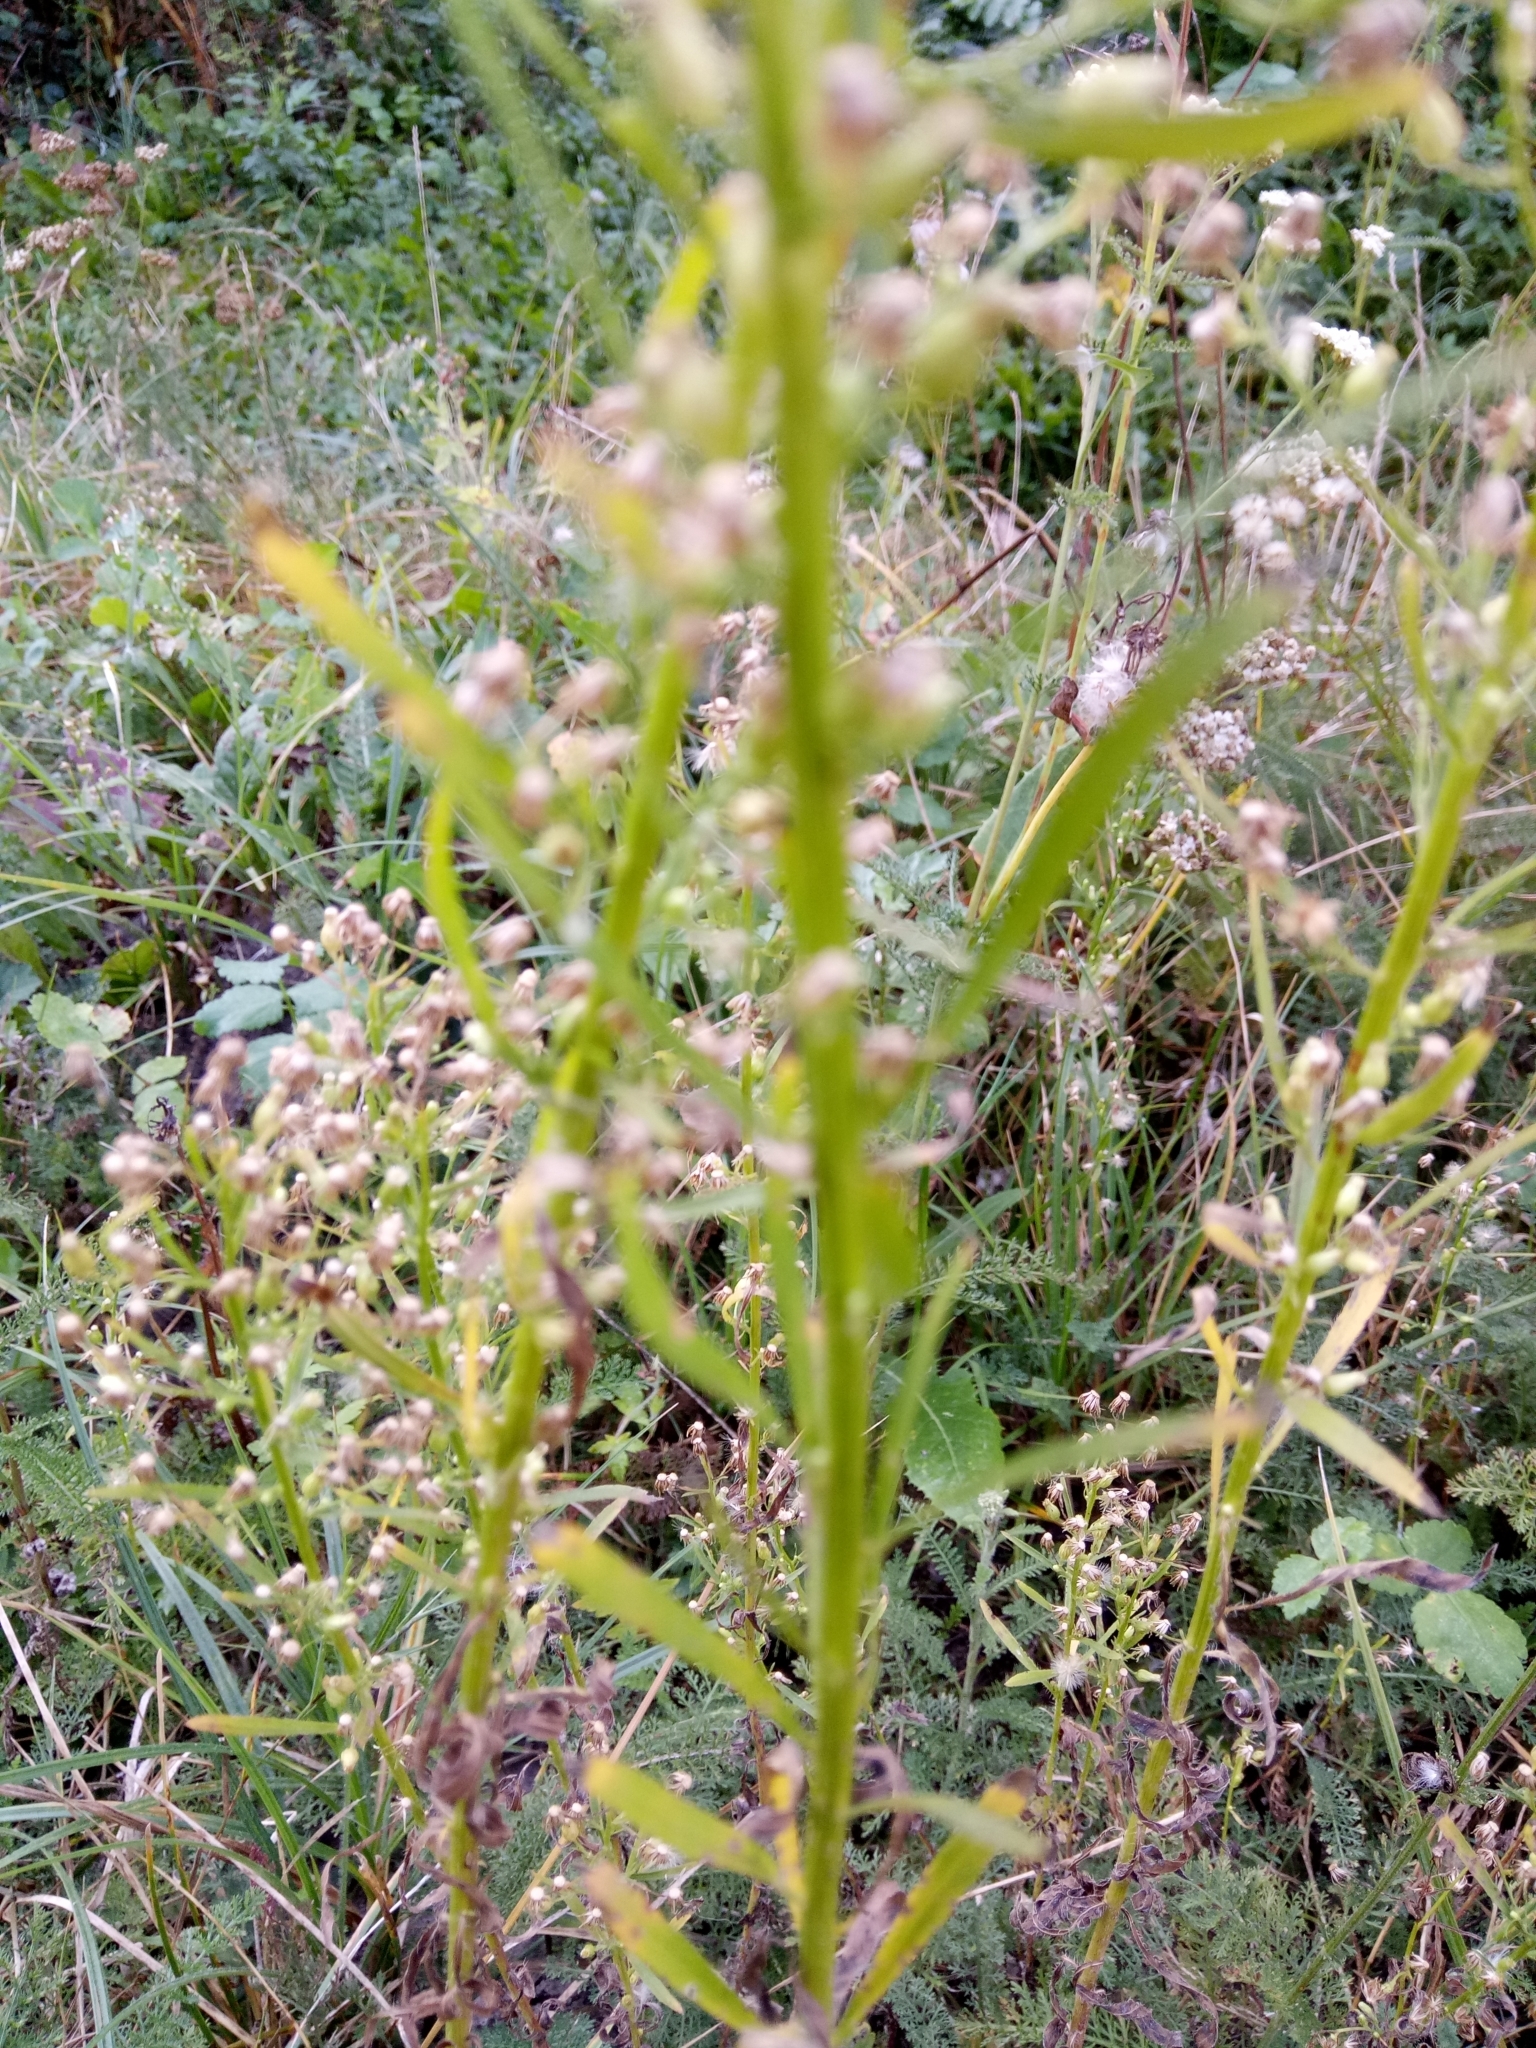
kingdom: Plantae
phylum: Tracheophyta
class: Magnoliopsida
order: Asterales
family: Asteraceae
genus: Erigeron
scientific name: Erigeron canadensis
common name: Canadian fleabane
